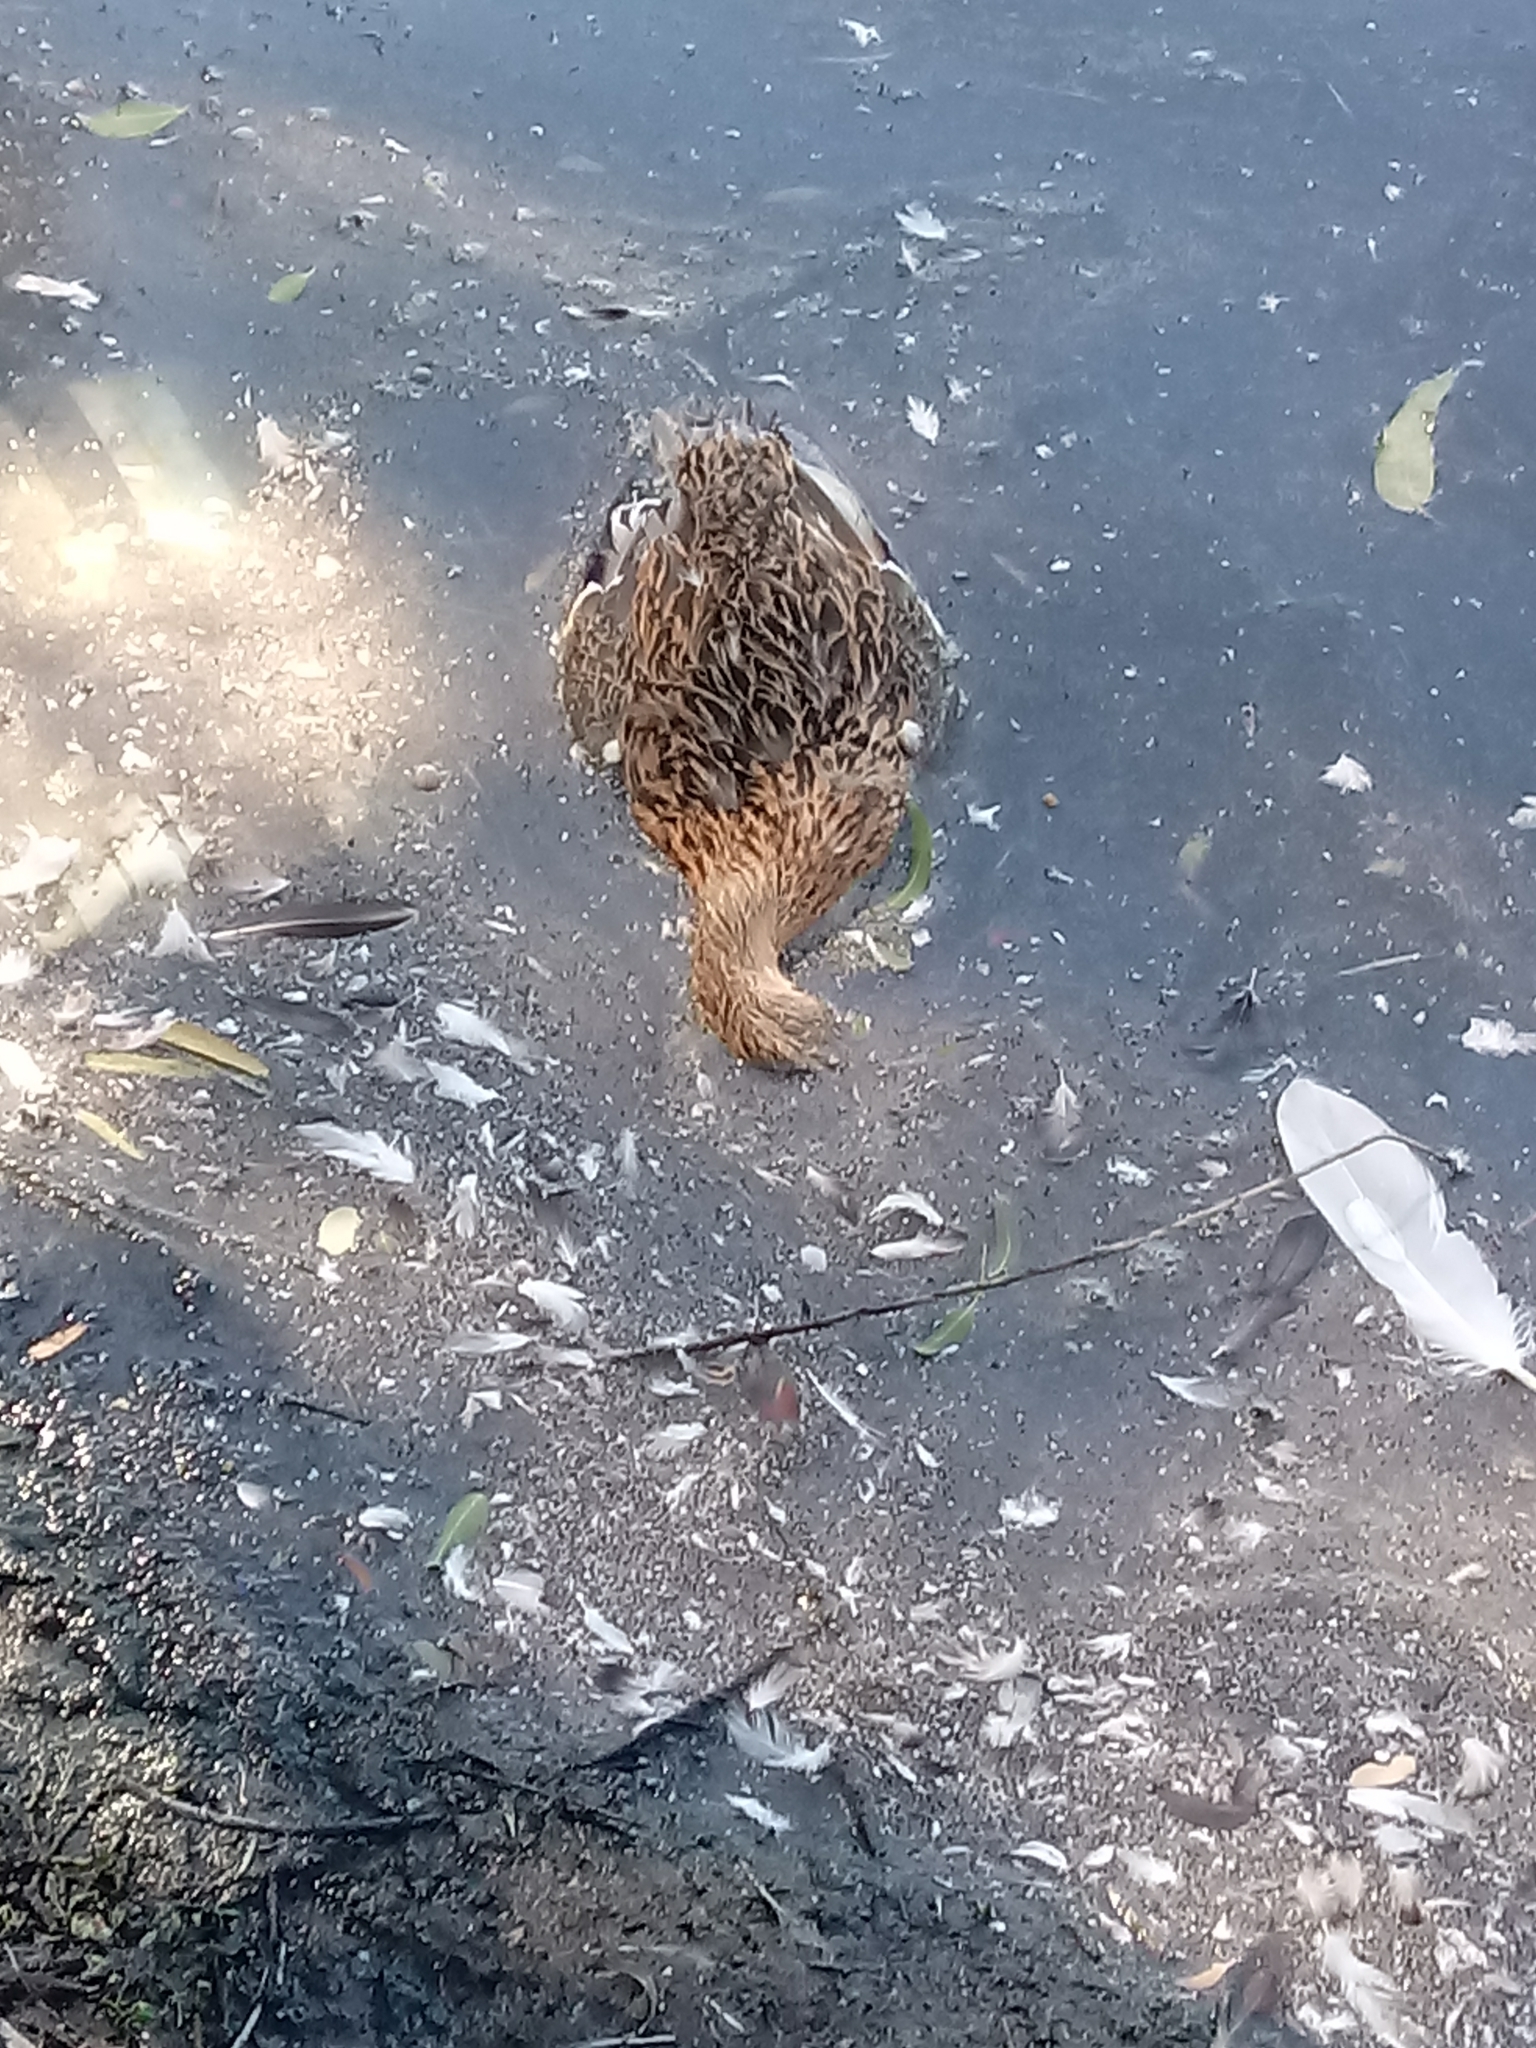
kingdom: Animalia
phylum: Chordata
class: Aves
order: Anseriformes
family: Anatidae
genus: Anas
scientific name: Anas platyrhynchos
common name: Mallard
